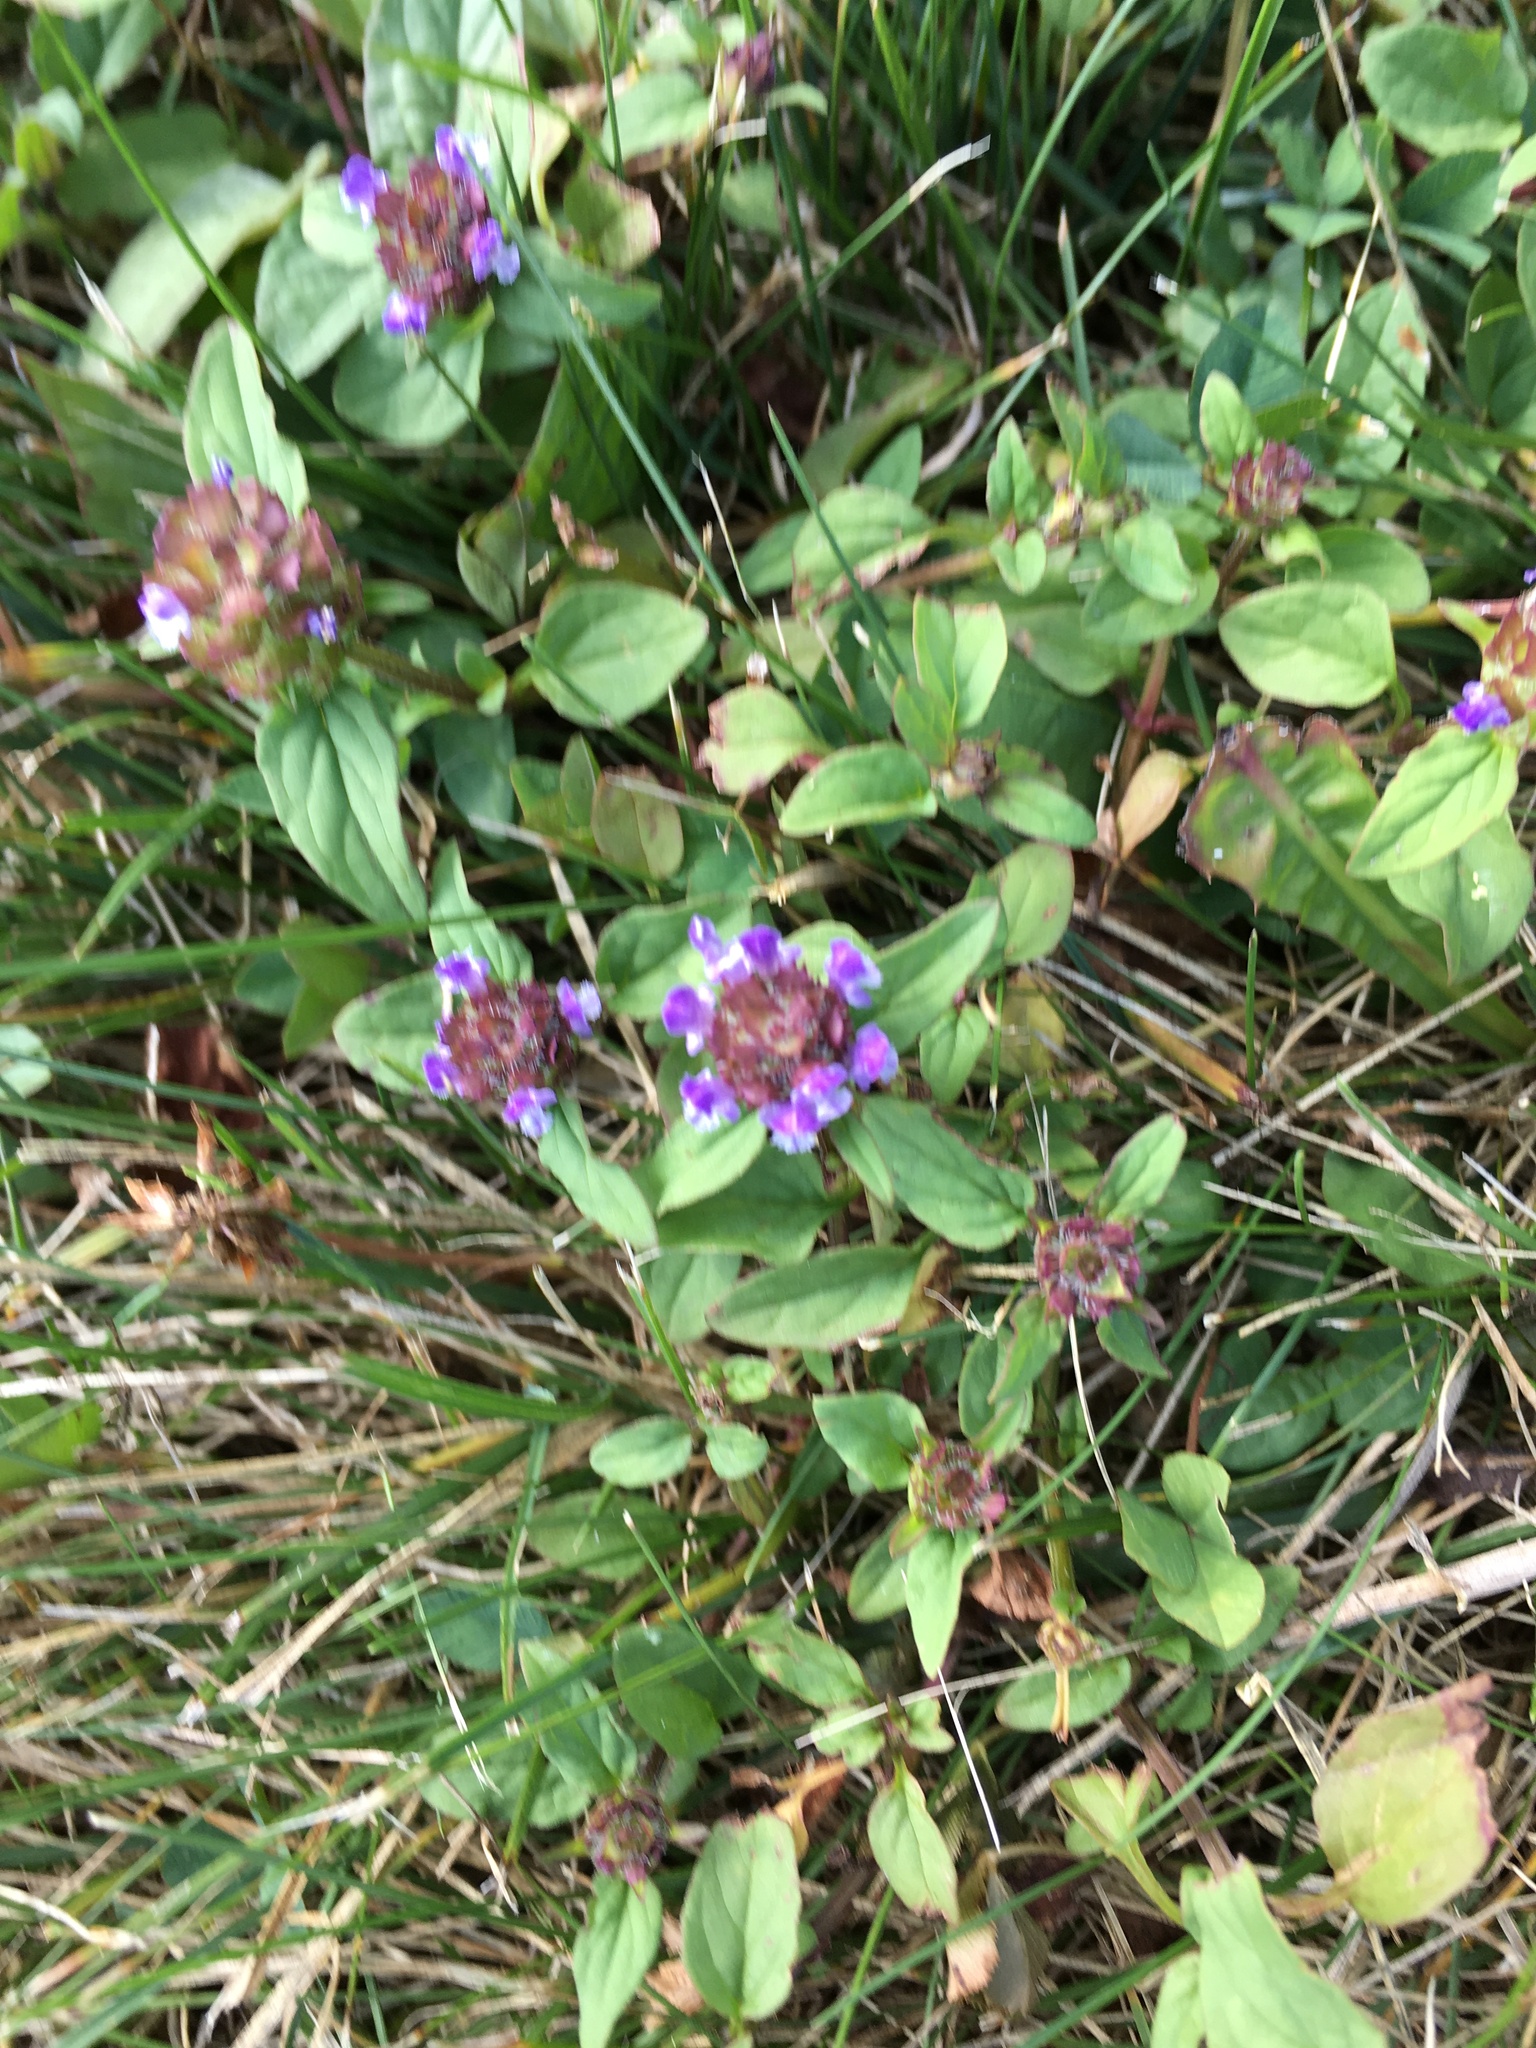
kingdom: Plantae
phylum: Tracheophyta
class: Magnoliopsida
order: Lamiales
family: Lamiaceae
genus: Prunella
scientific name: Prunella vulgaris
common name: Heal-all
